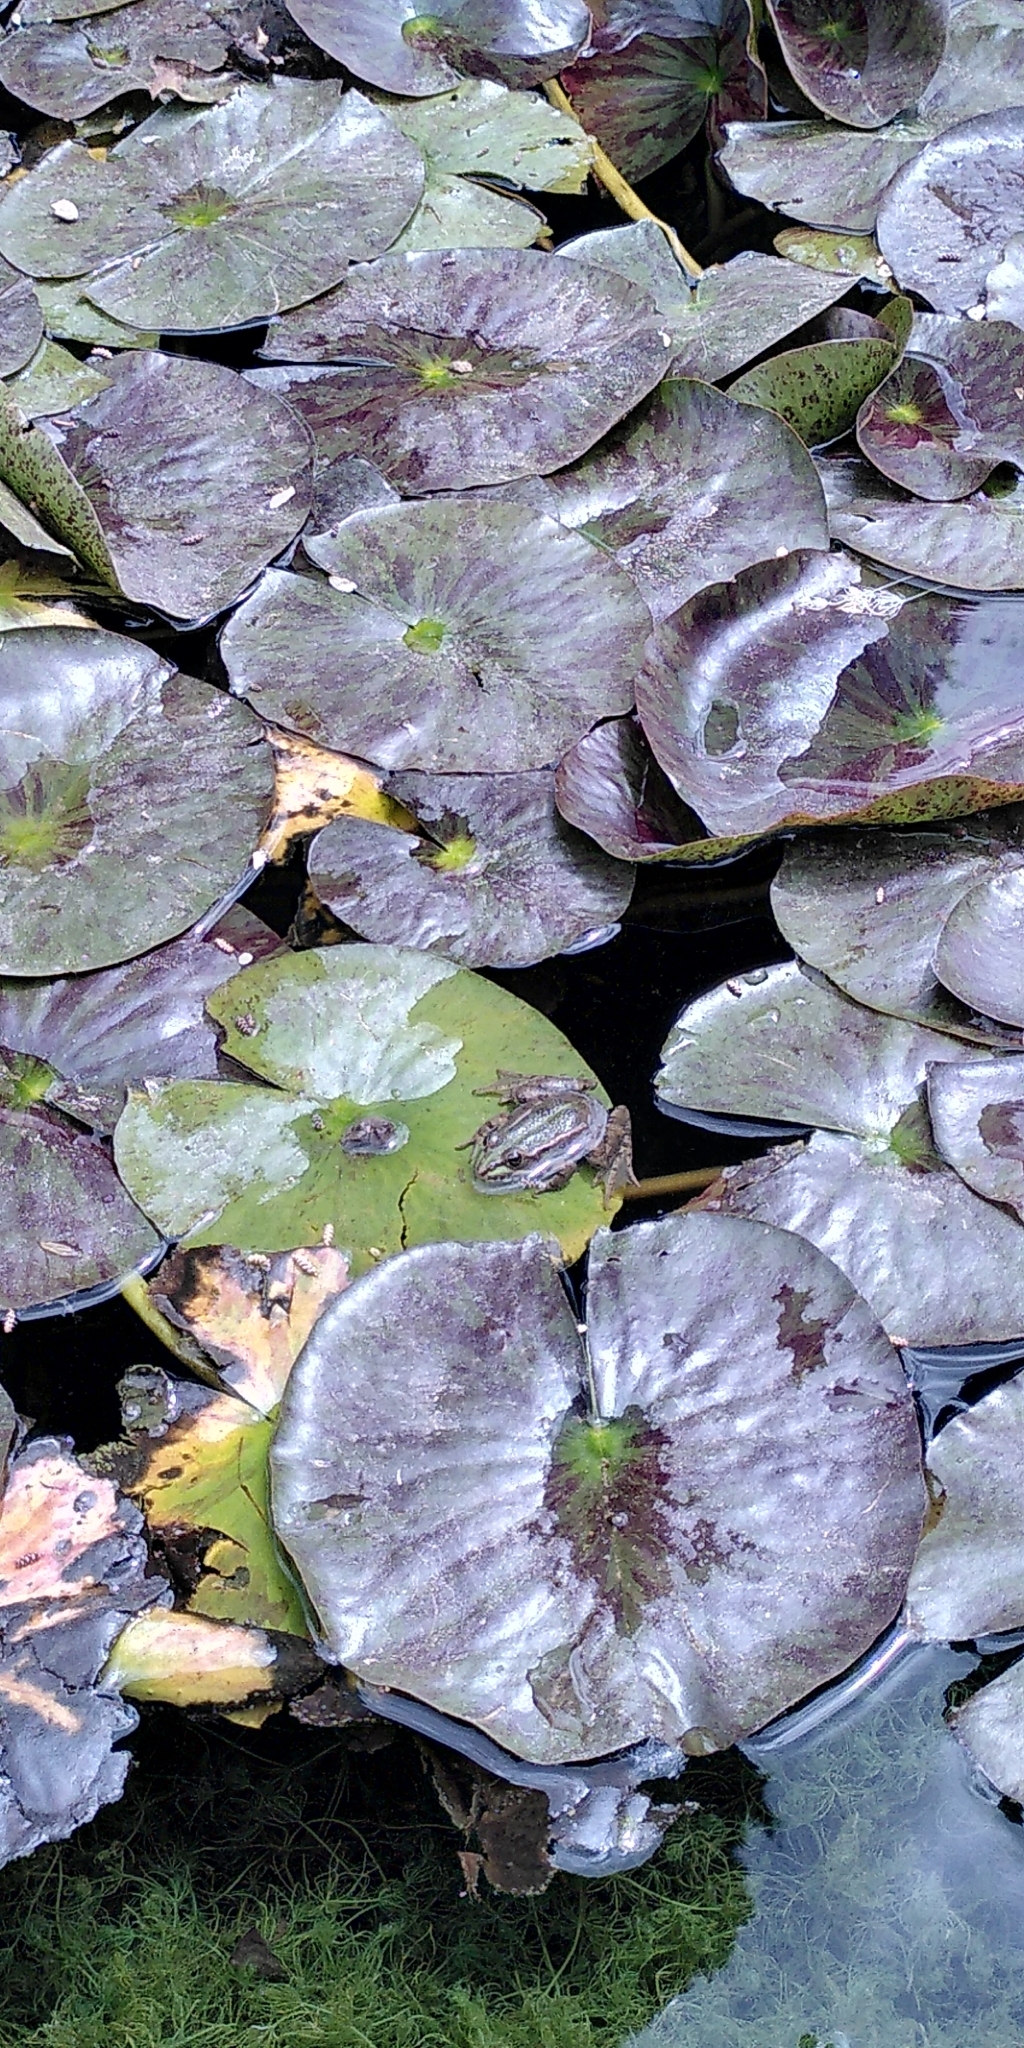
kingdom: Animalia
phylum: Chordata
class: Amphibia
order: Anura
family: Ranidae
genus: Pelophylax
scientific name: Pelophylax perezi
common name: Perez's frog
